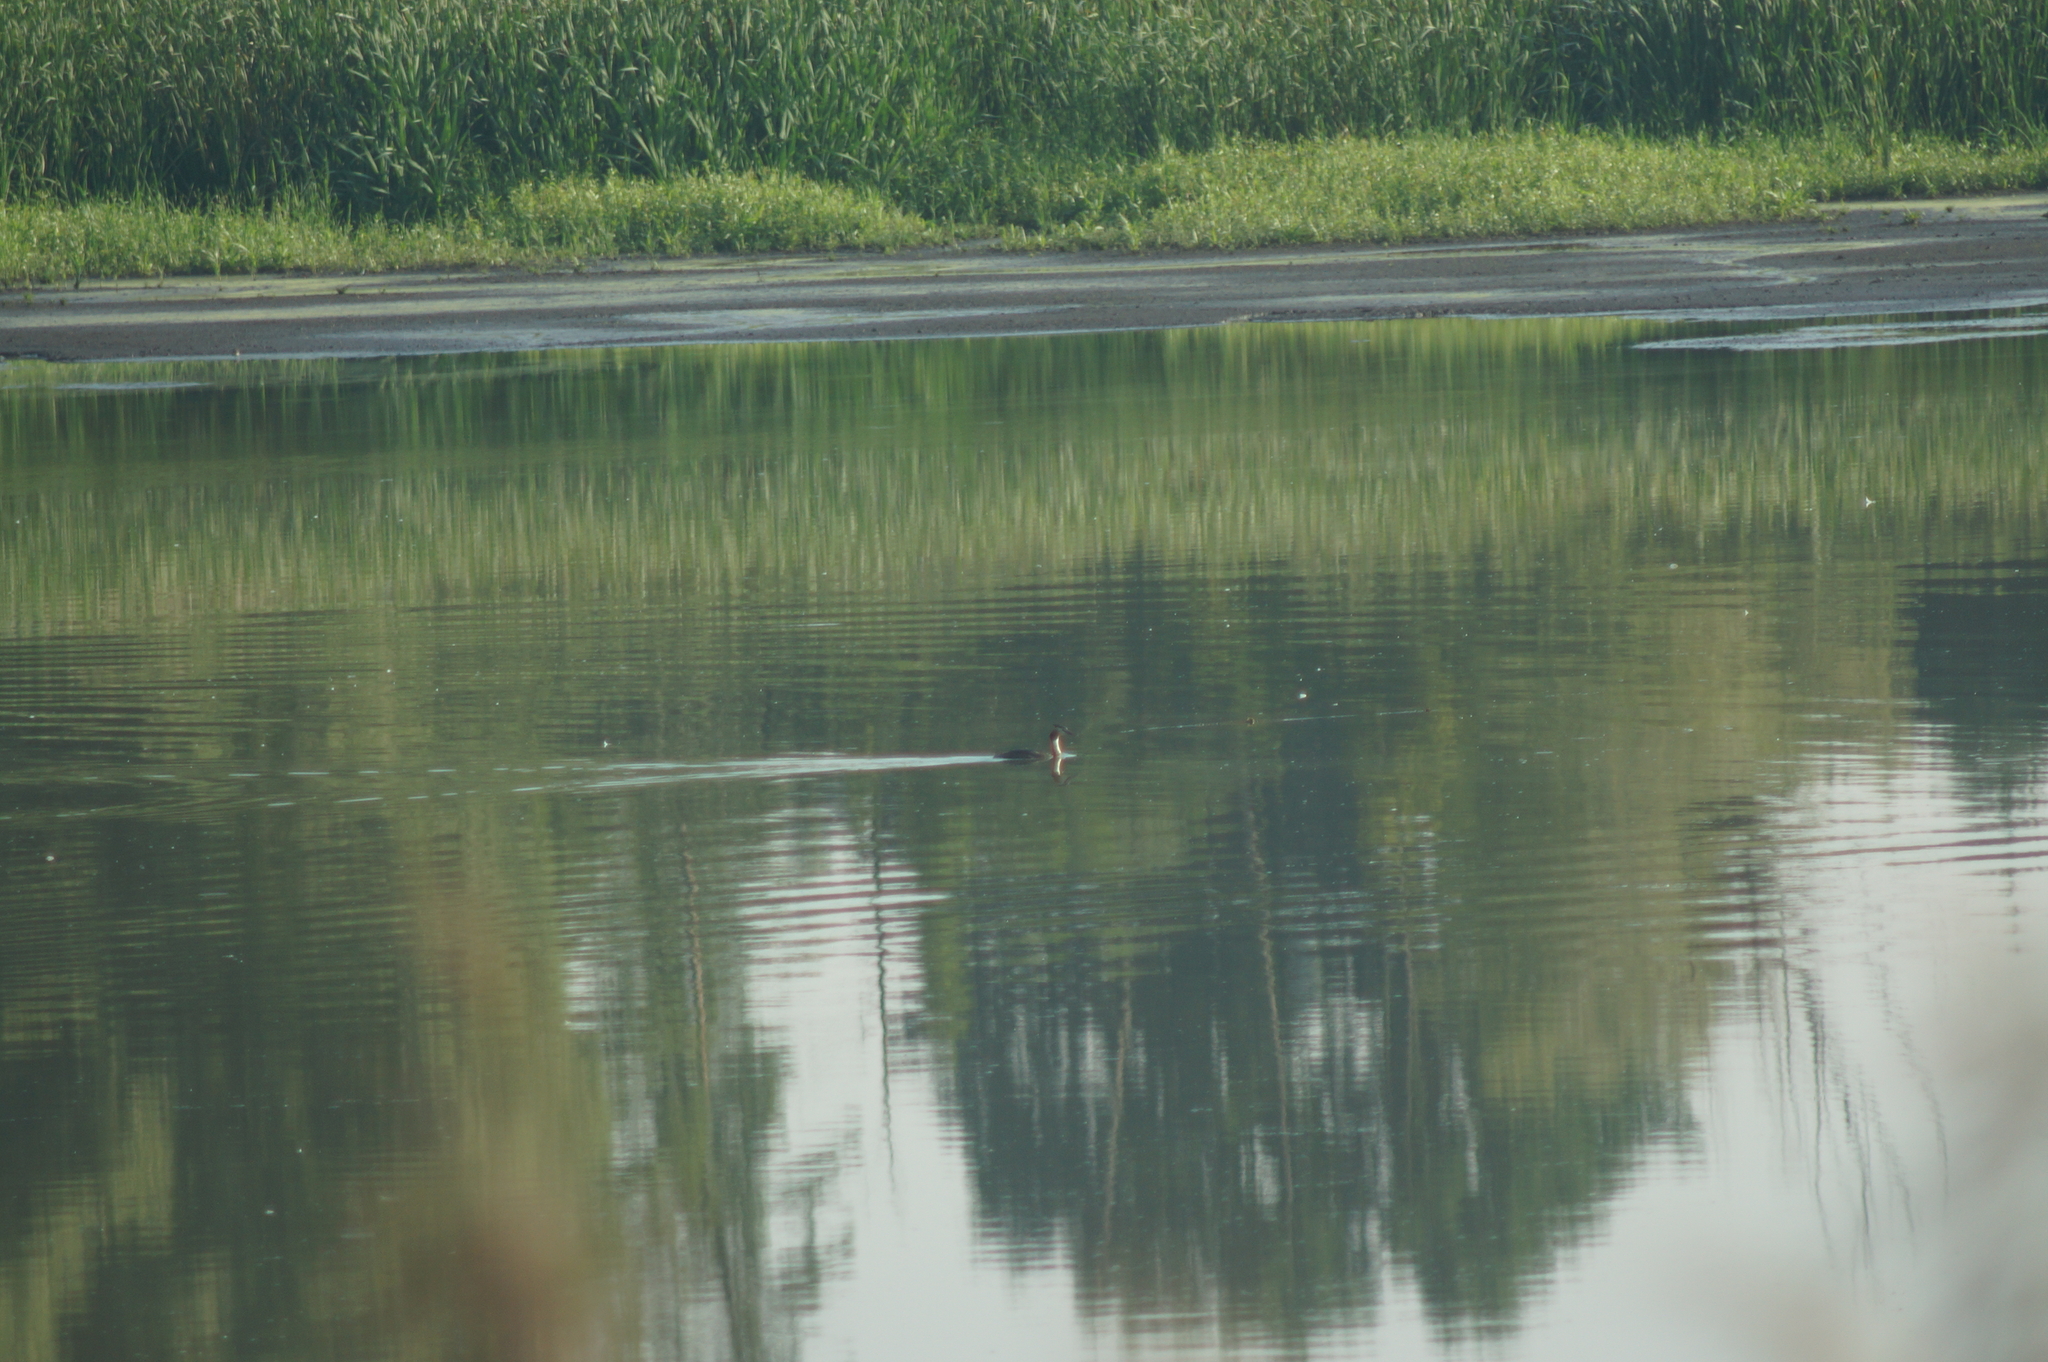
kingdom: Animalia
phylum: Chordata
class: Aves
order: Podicipediformes
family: Podicipedidae
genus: Podiceps
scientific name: Podiceps cristatus
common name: Great crested grebe
